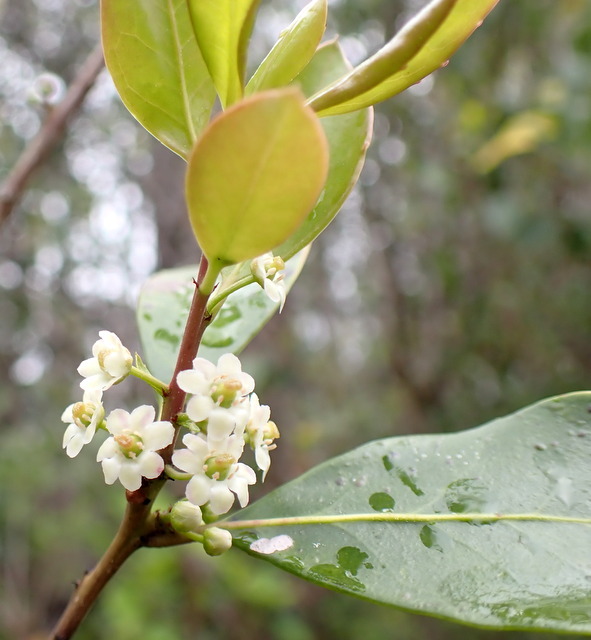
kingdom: Plantae
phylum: Tracheophyta
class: Magnoliopsida
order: Aquifoliales
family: Aquifoliaceae
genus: Ilex
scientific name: Ilex coriacea
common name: Sweet gallberry
